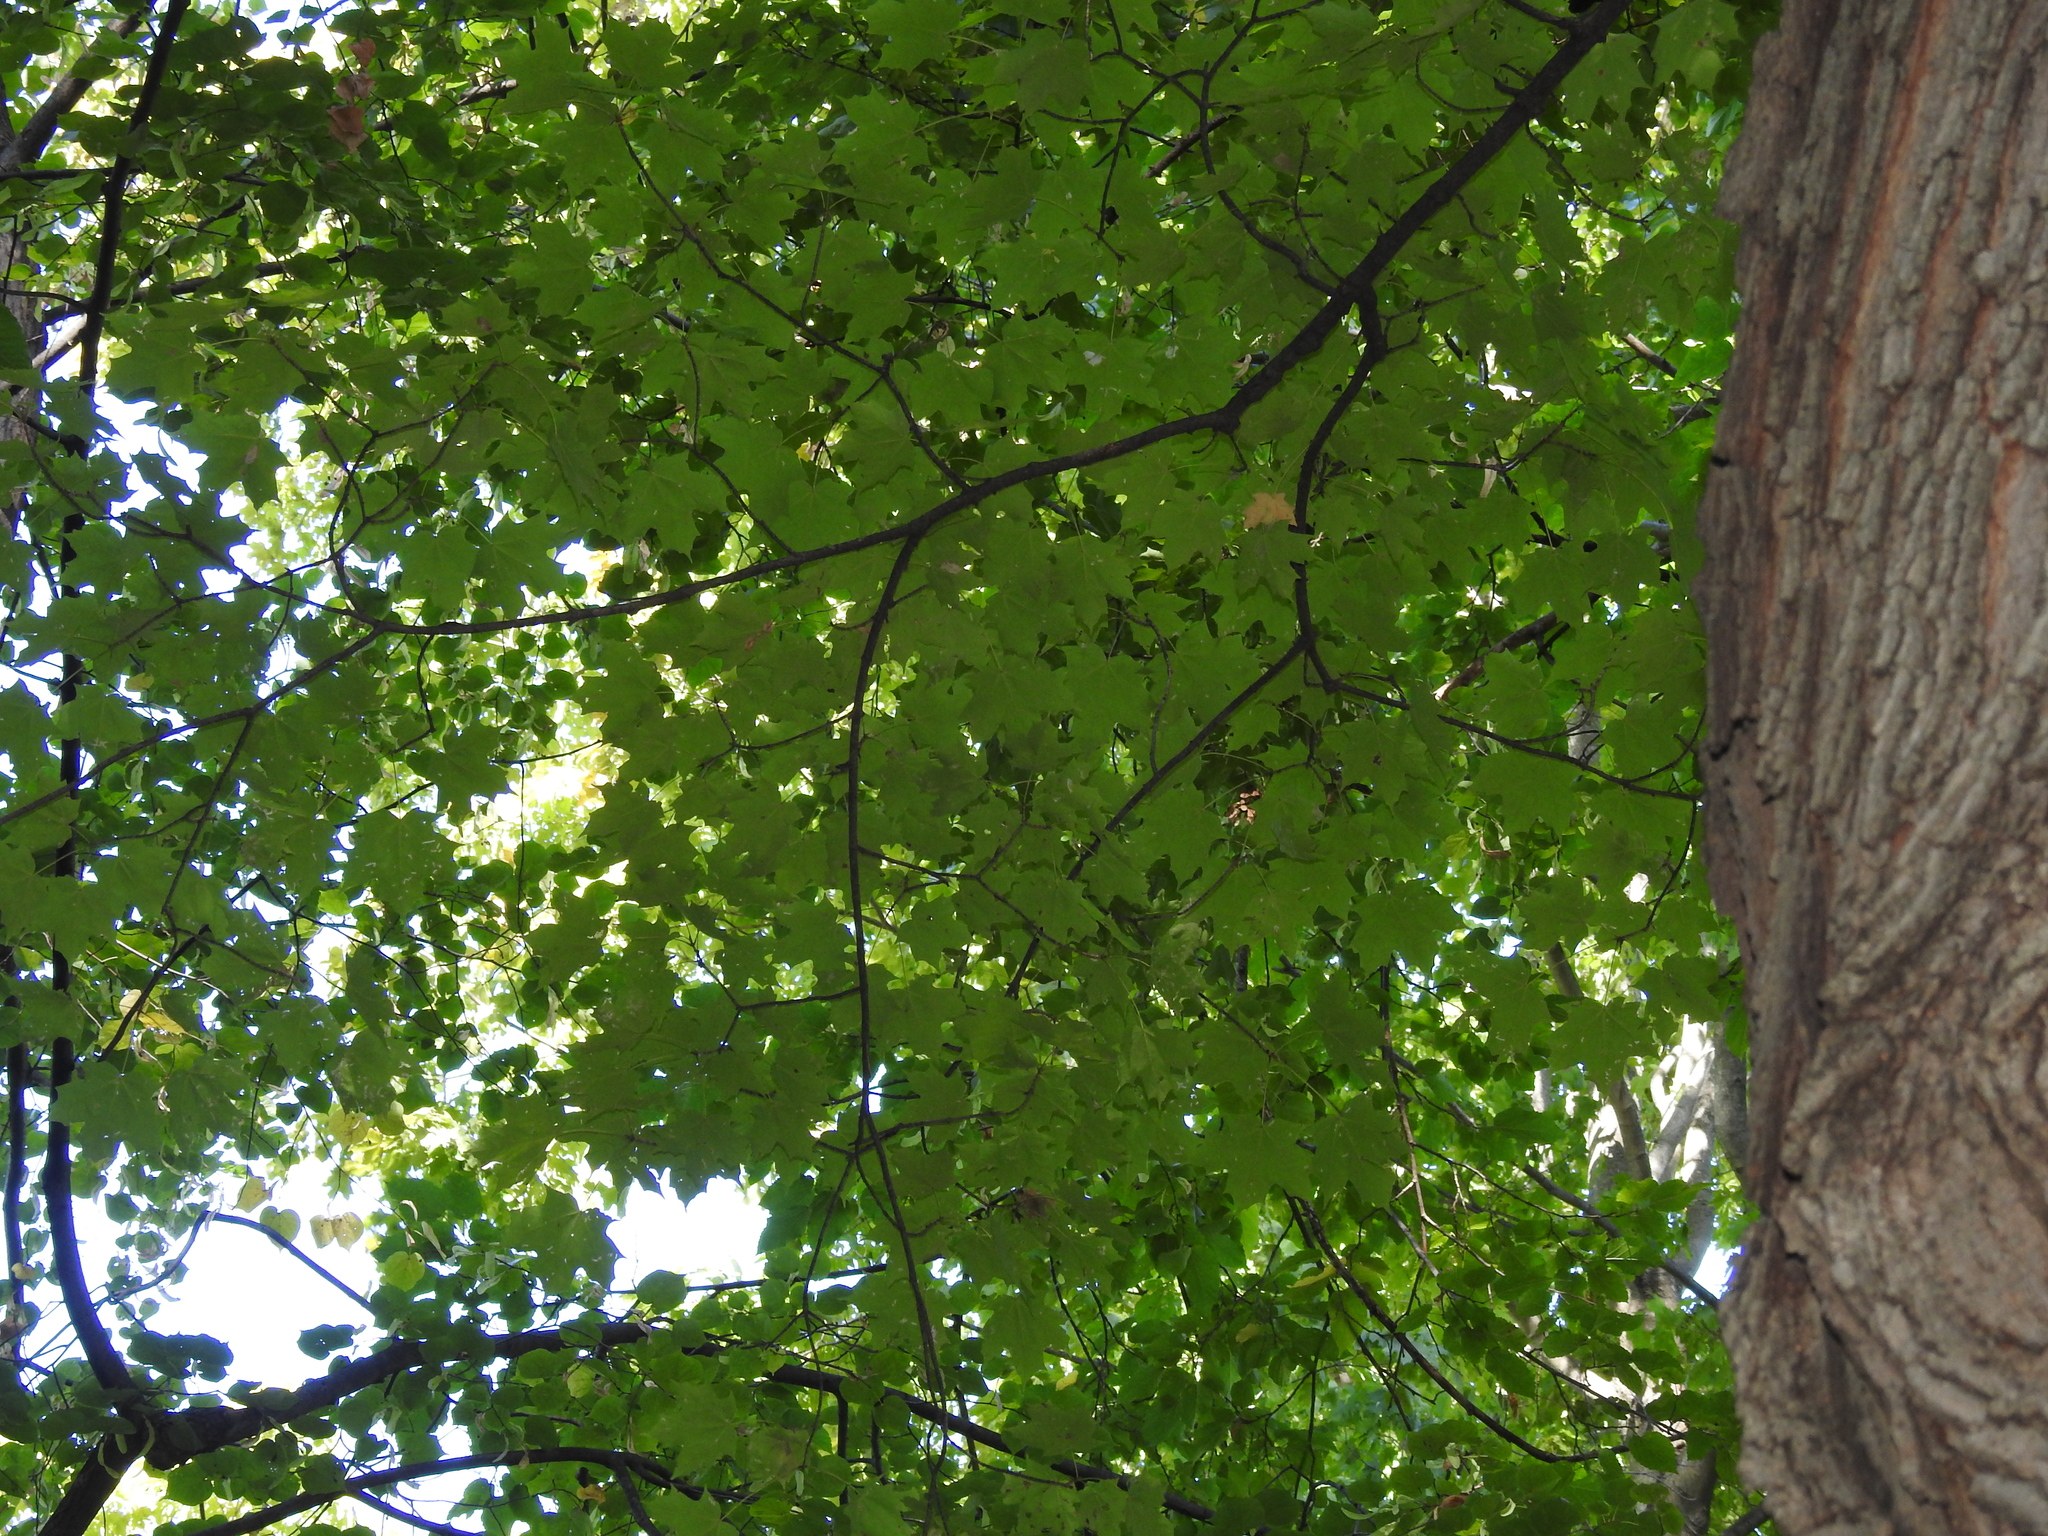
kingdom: Plantae
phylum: Tracheophyta
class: Magnoliopsida
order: Sapindales
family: Sapindaceae
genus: Acer
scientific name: Acer saccharum
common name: Sugar maple
